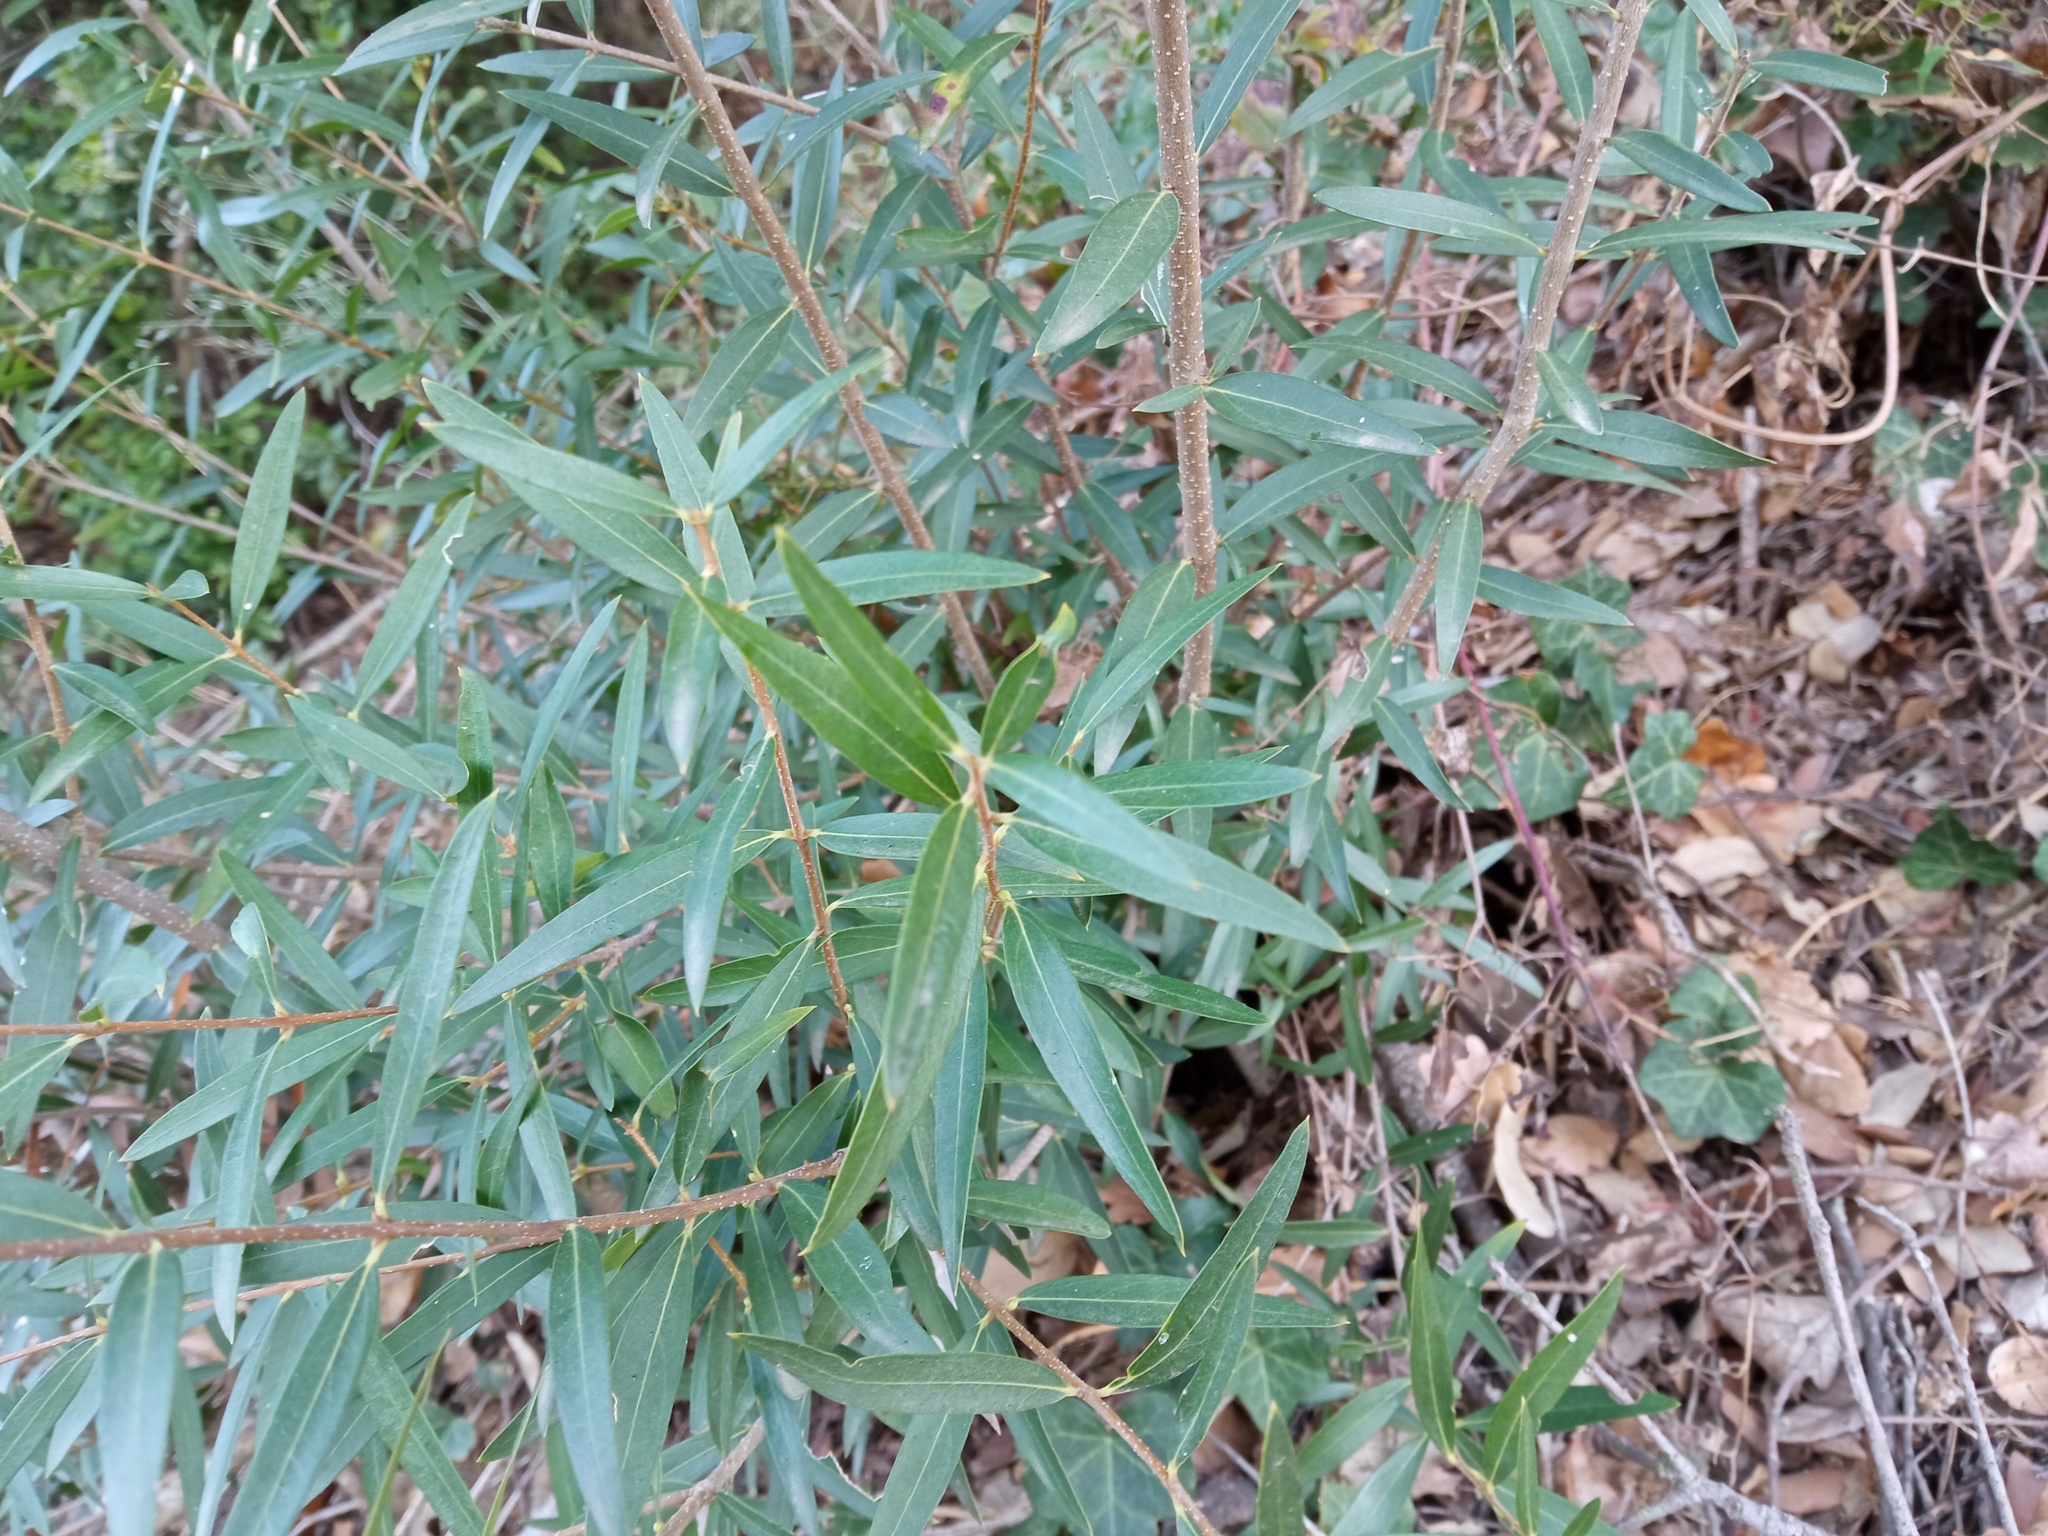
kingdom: Plantae
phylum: Tracheophyta
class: Magnoliopsida
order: Lamiales
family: Oleaceae
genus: Phillyrea
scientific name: Phillyrea angustifolia
